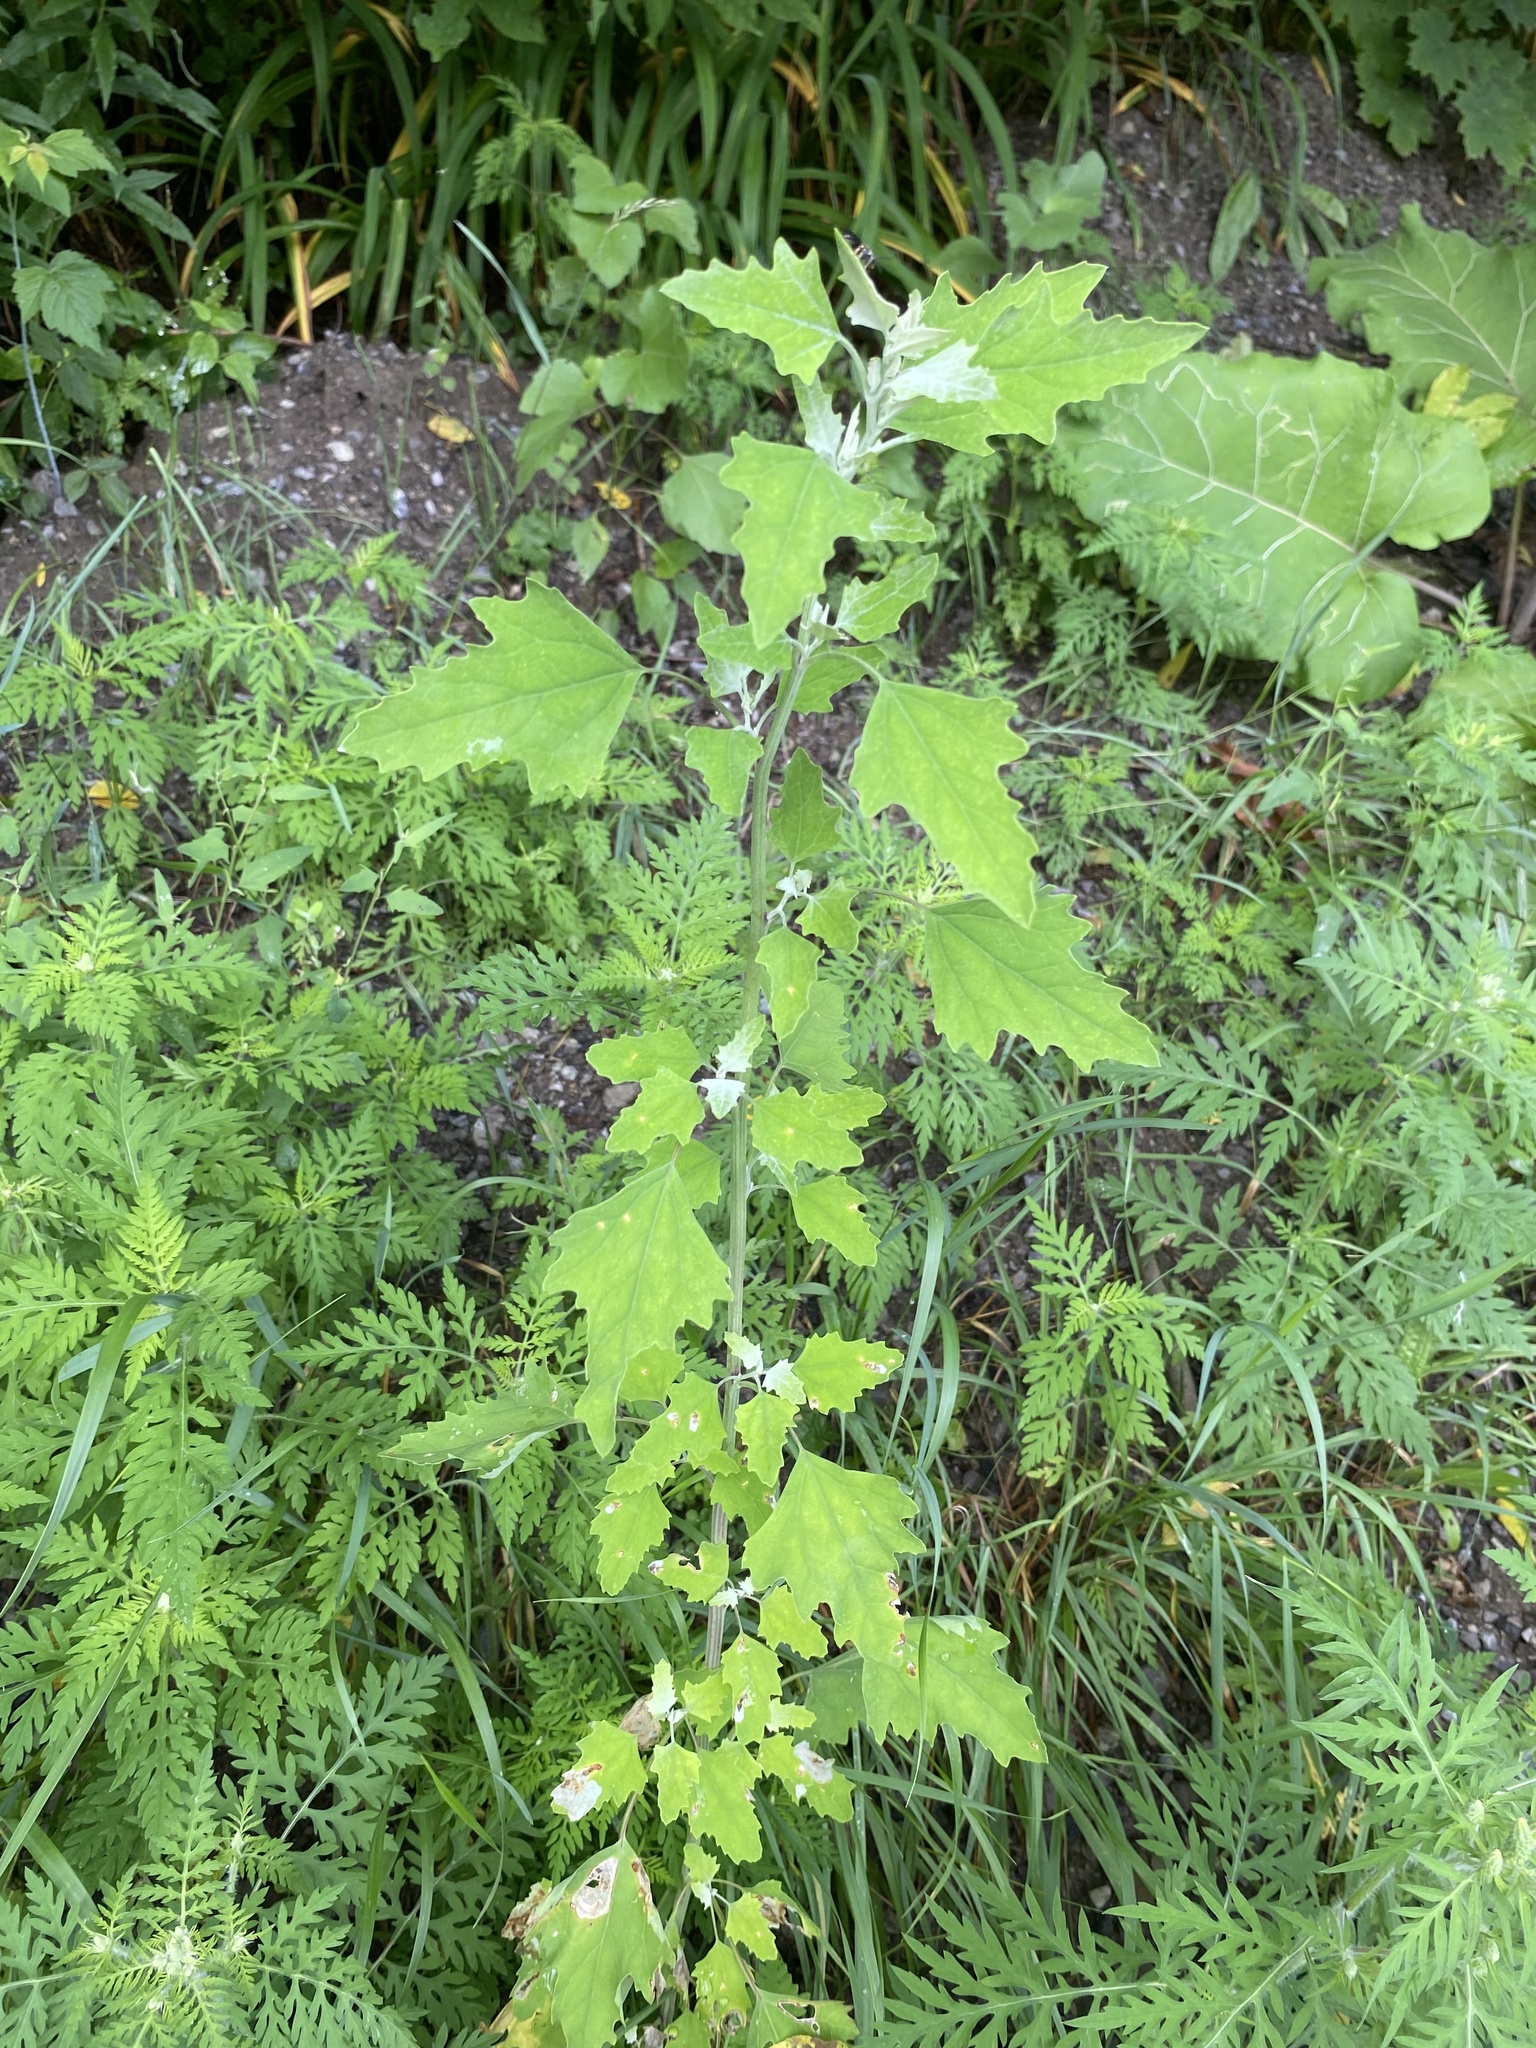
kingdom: Plantae
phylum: Tracheophyta
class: Magnoliopsida
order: Caryophyllales
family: Amaranthaceae
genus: Chenopodium
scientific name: Chenopodium album
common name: Fat-hen
